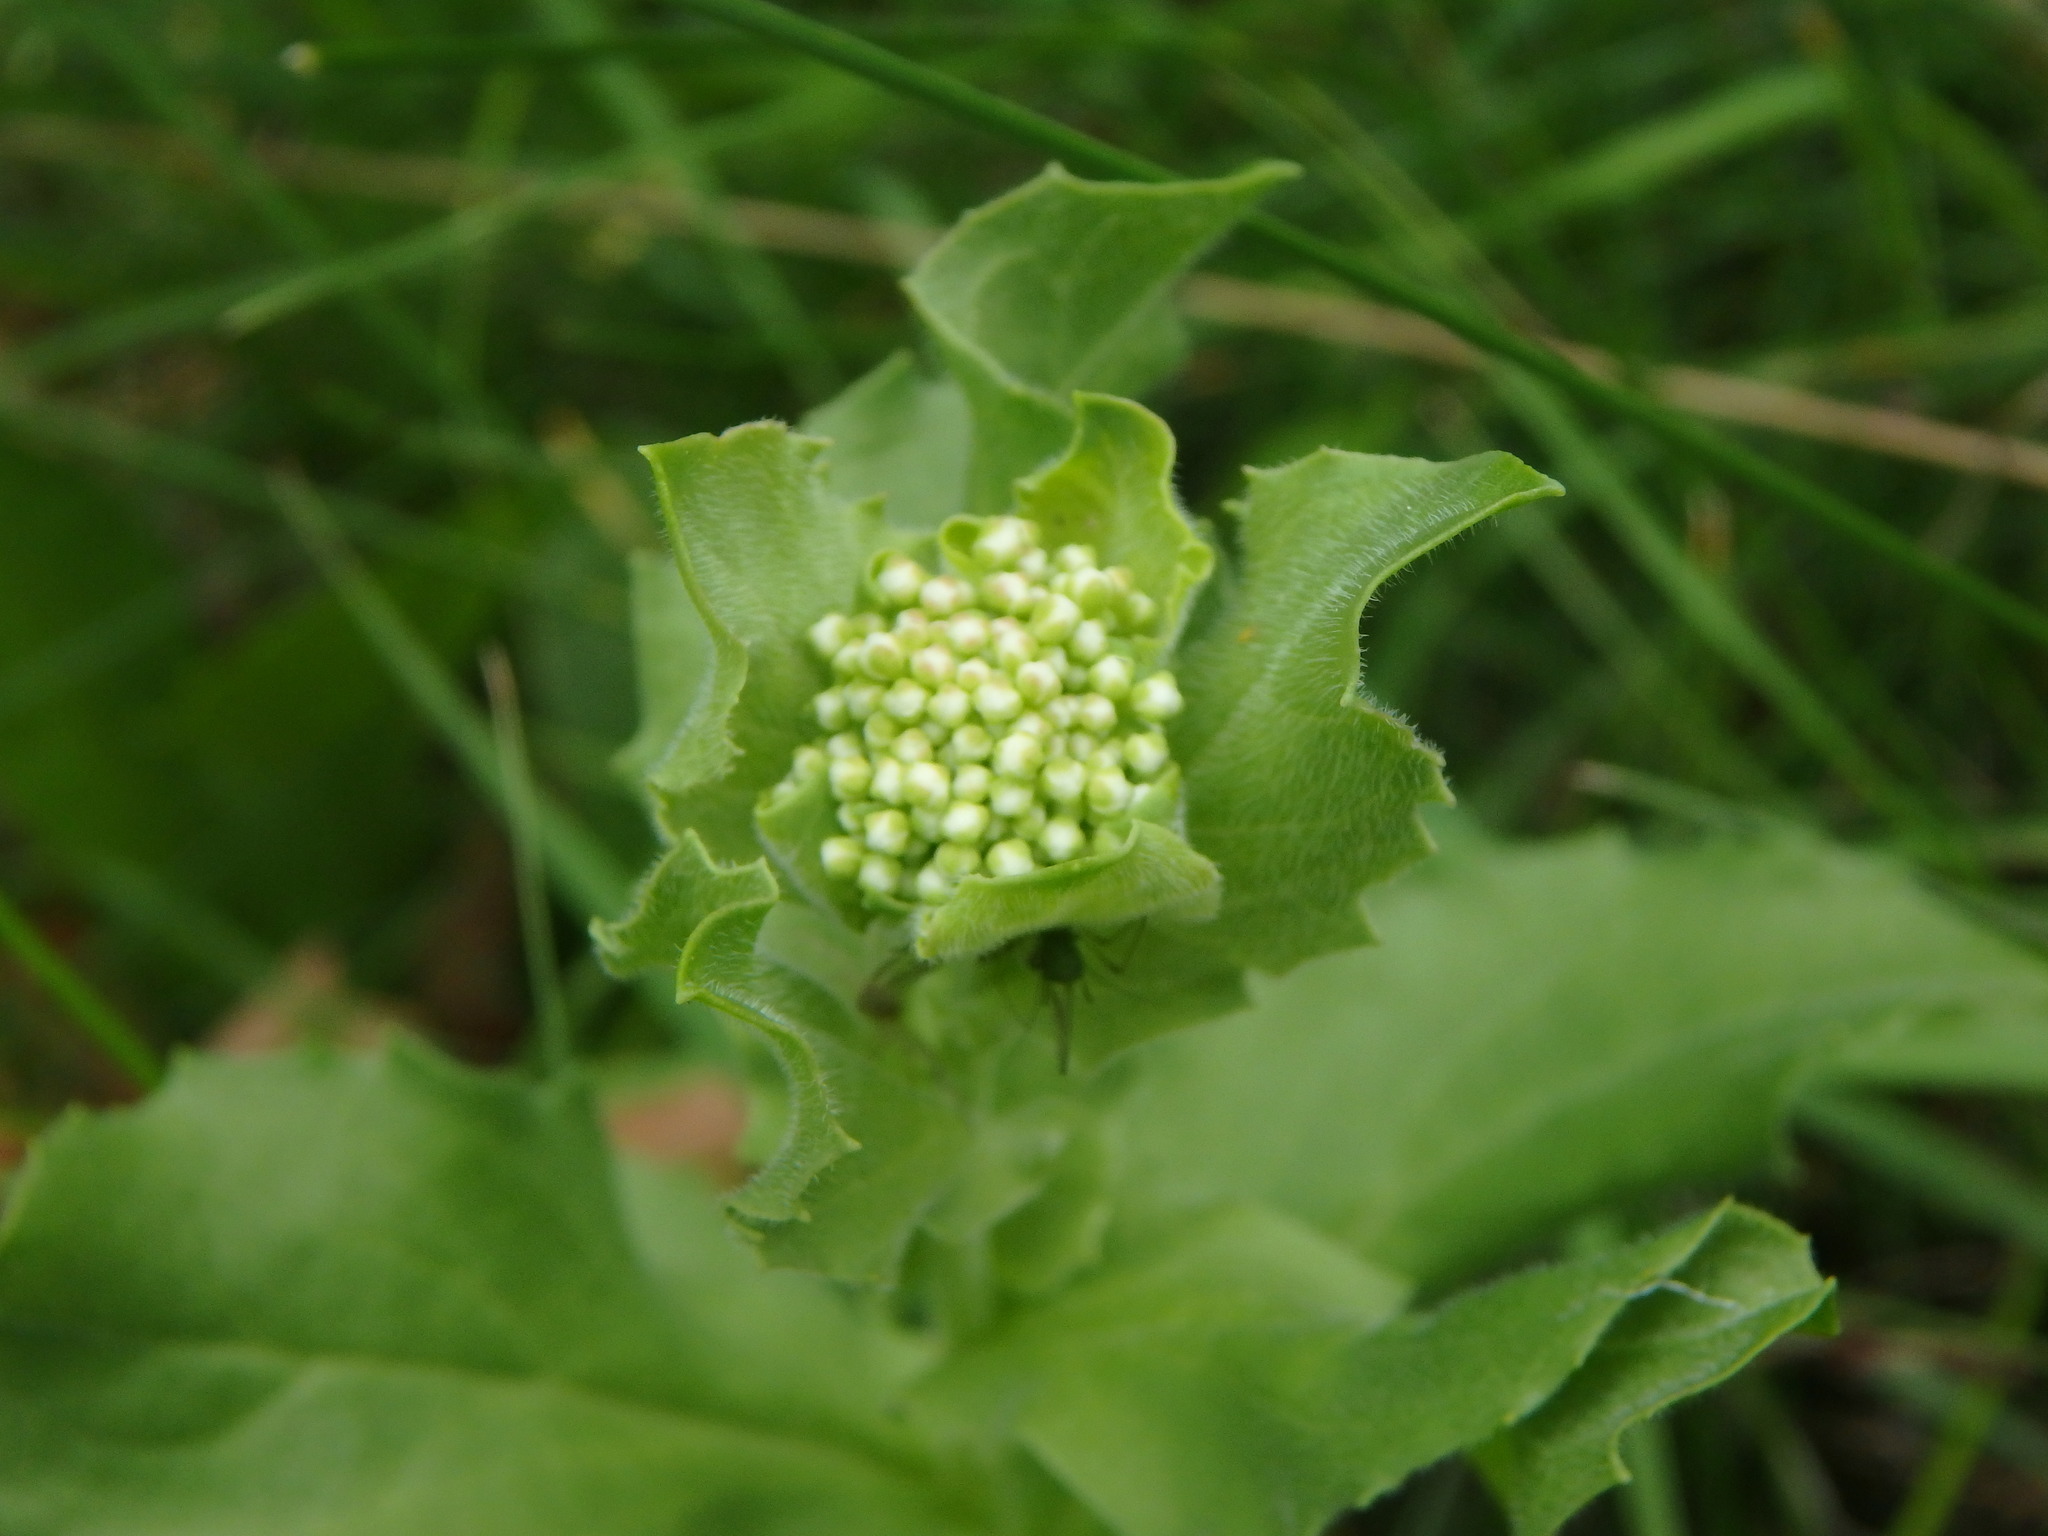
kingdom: Plantae
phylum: Tracheophyta
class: Magnoliopsida
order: Brassicales
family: Brassicaceae
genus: Lepidium
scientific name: Lepidium draba
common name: Hoary cress
